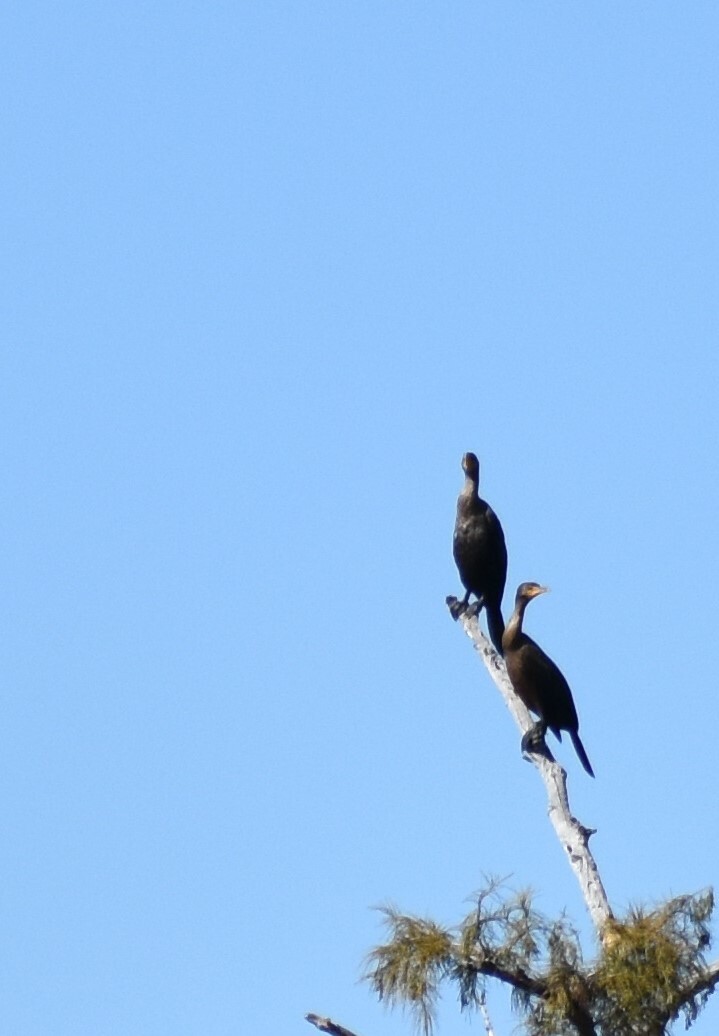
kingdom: Animalia
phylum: Chordata
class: Aves
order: Suliformes
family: Phalacrocoracidae
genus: Phalacrocorax
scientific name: Phalacrocorax auritus
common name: Double-crested cormorant
